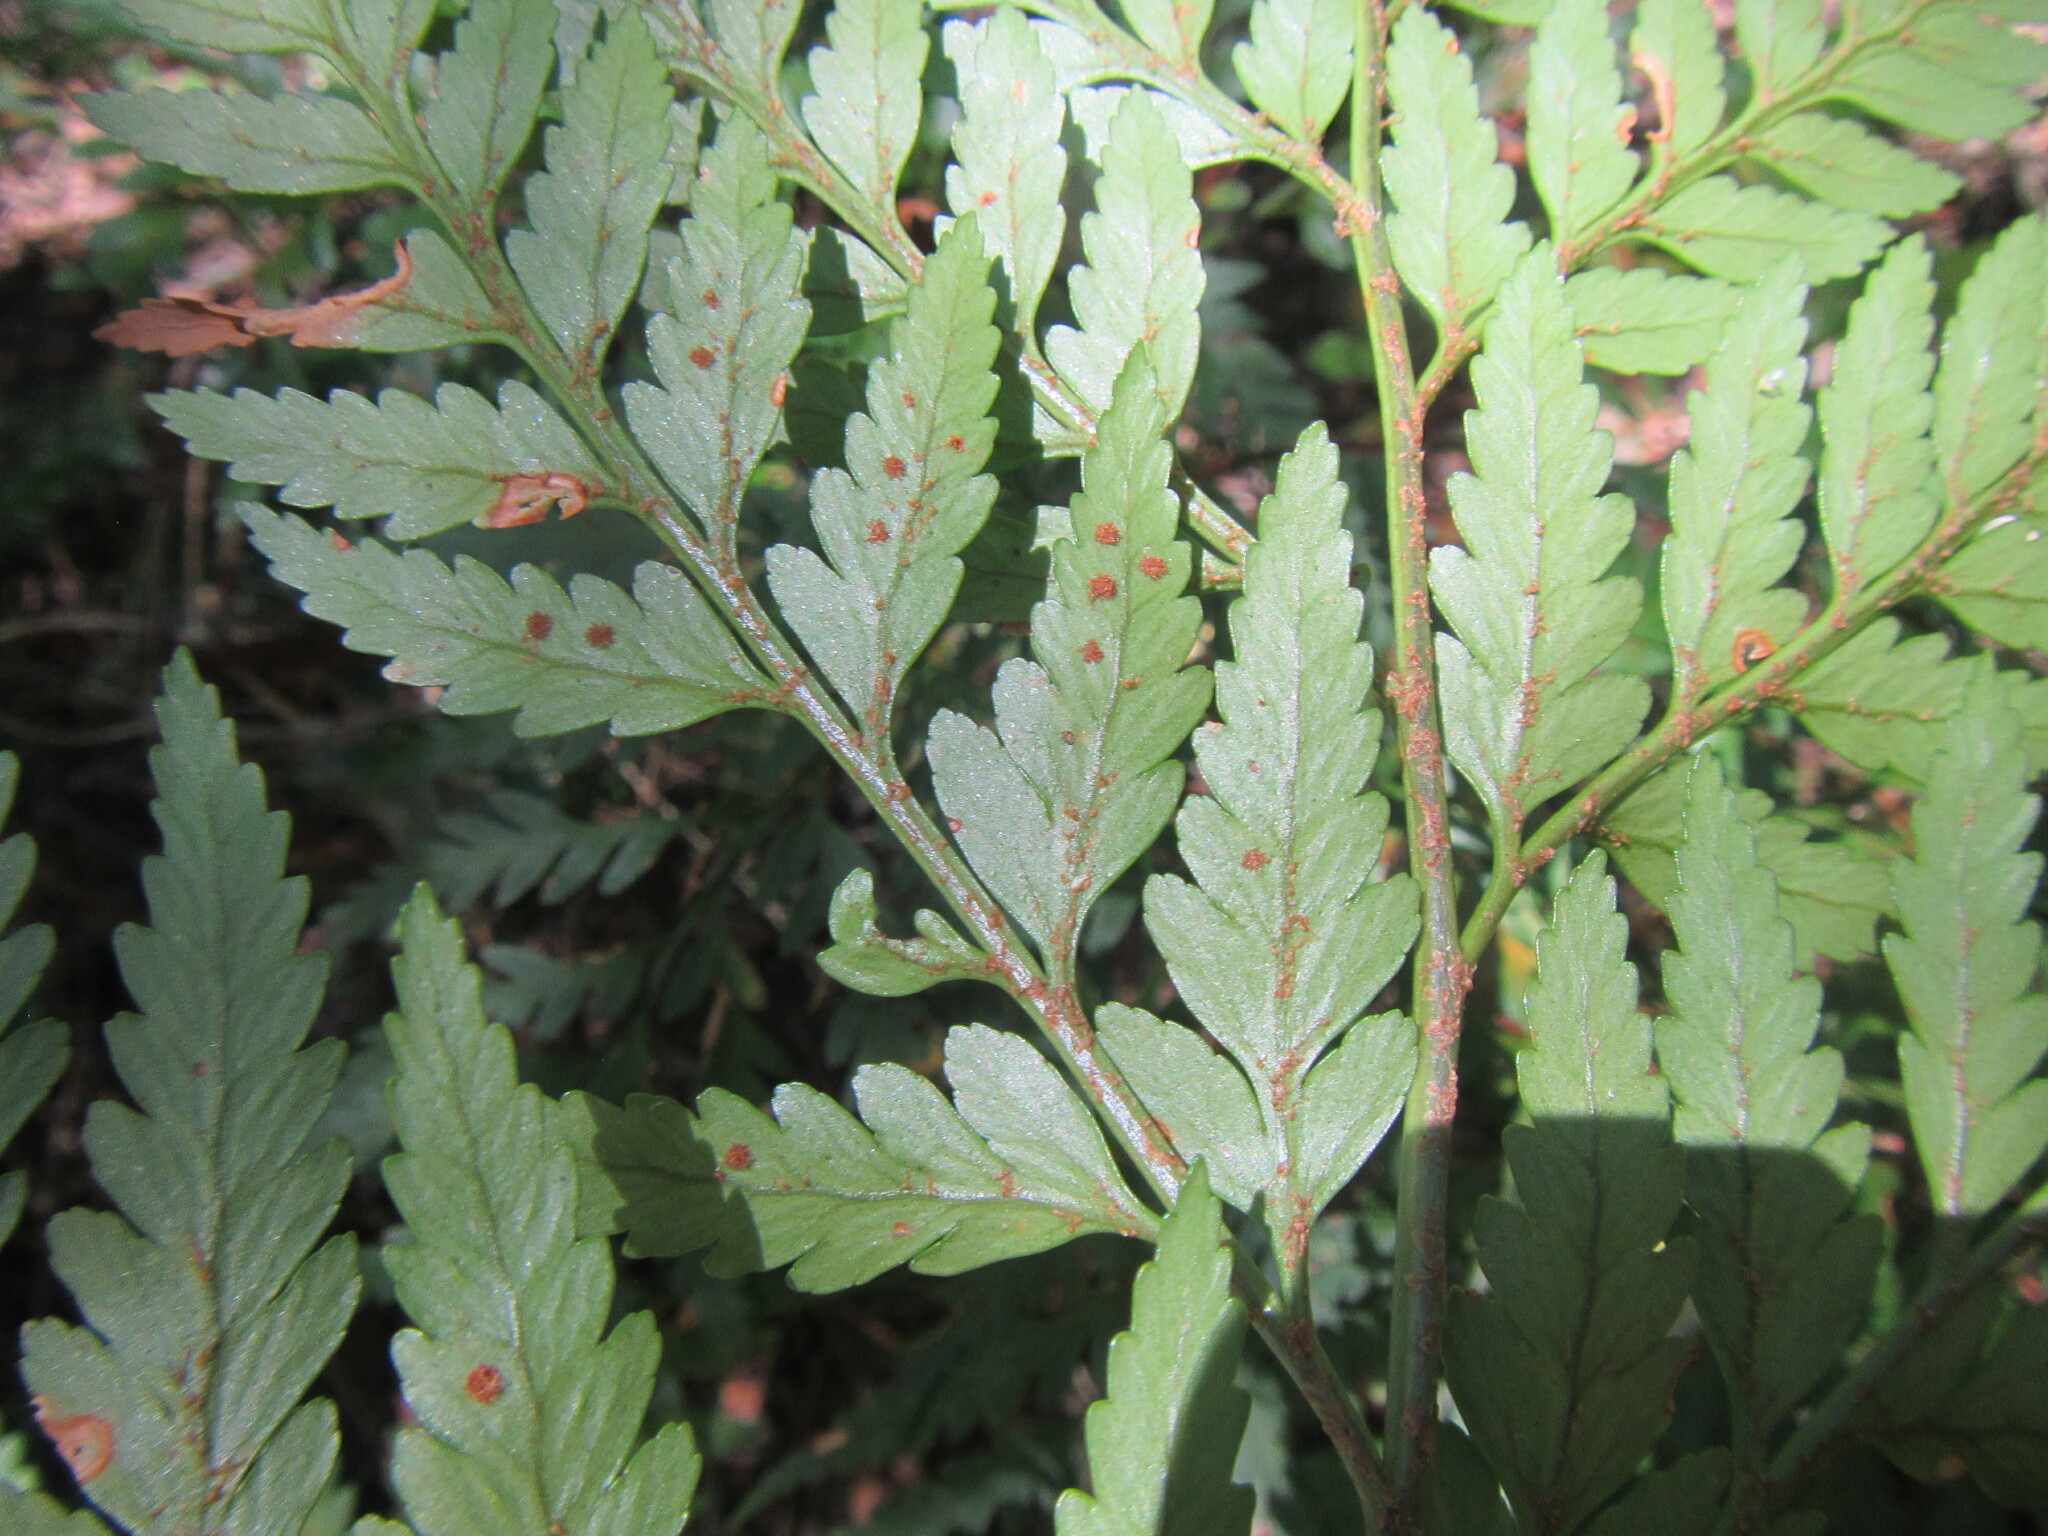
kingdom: Plantae
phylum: Tracheophyta
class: Polypodiopsida
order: Polypodiales
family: Dryopteridaceae
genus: Rumohra
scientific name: Rumohra adiantiformis
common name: Leather fern
